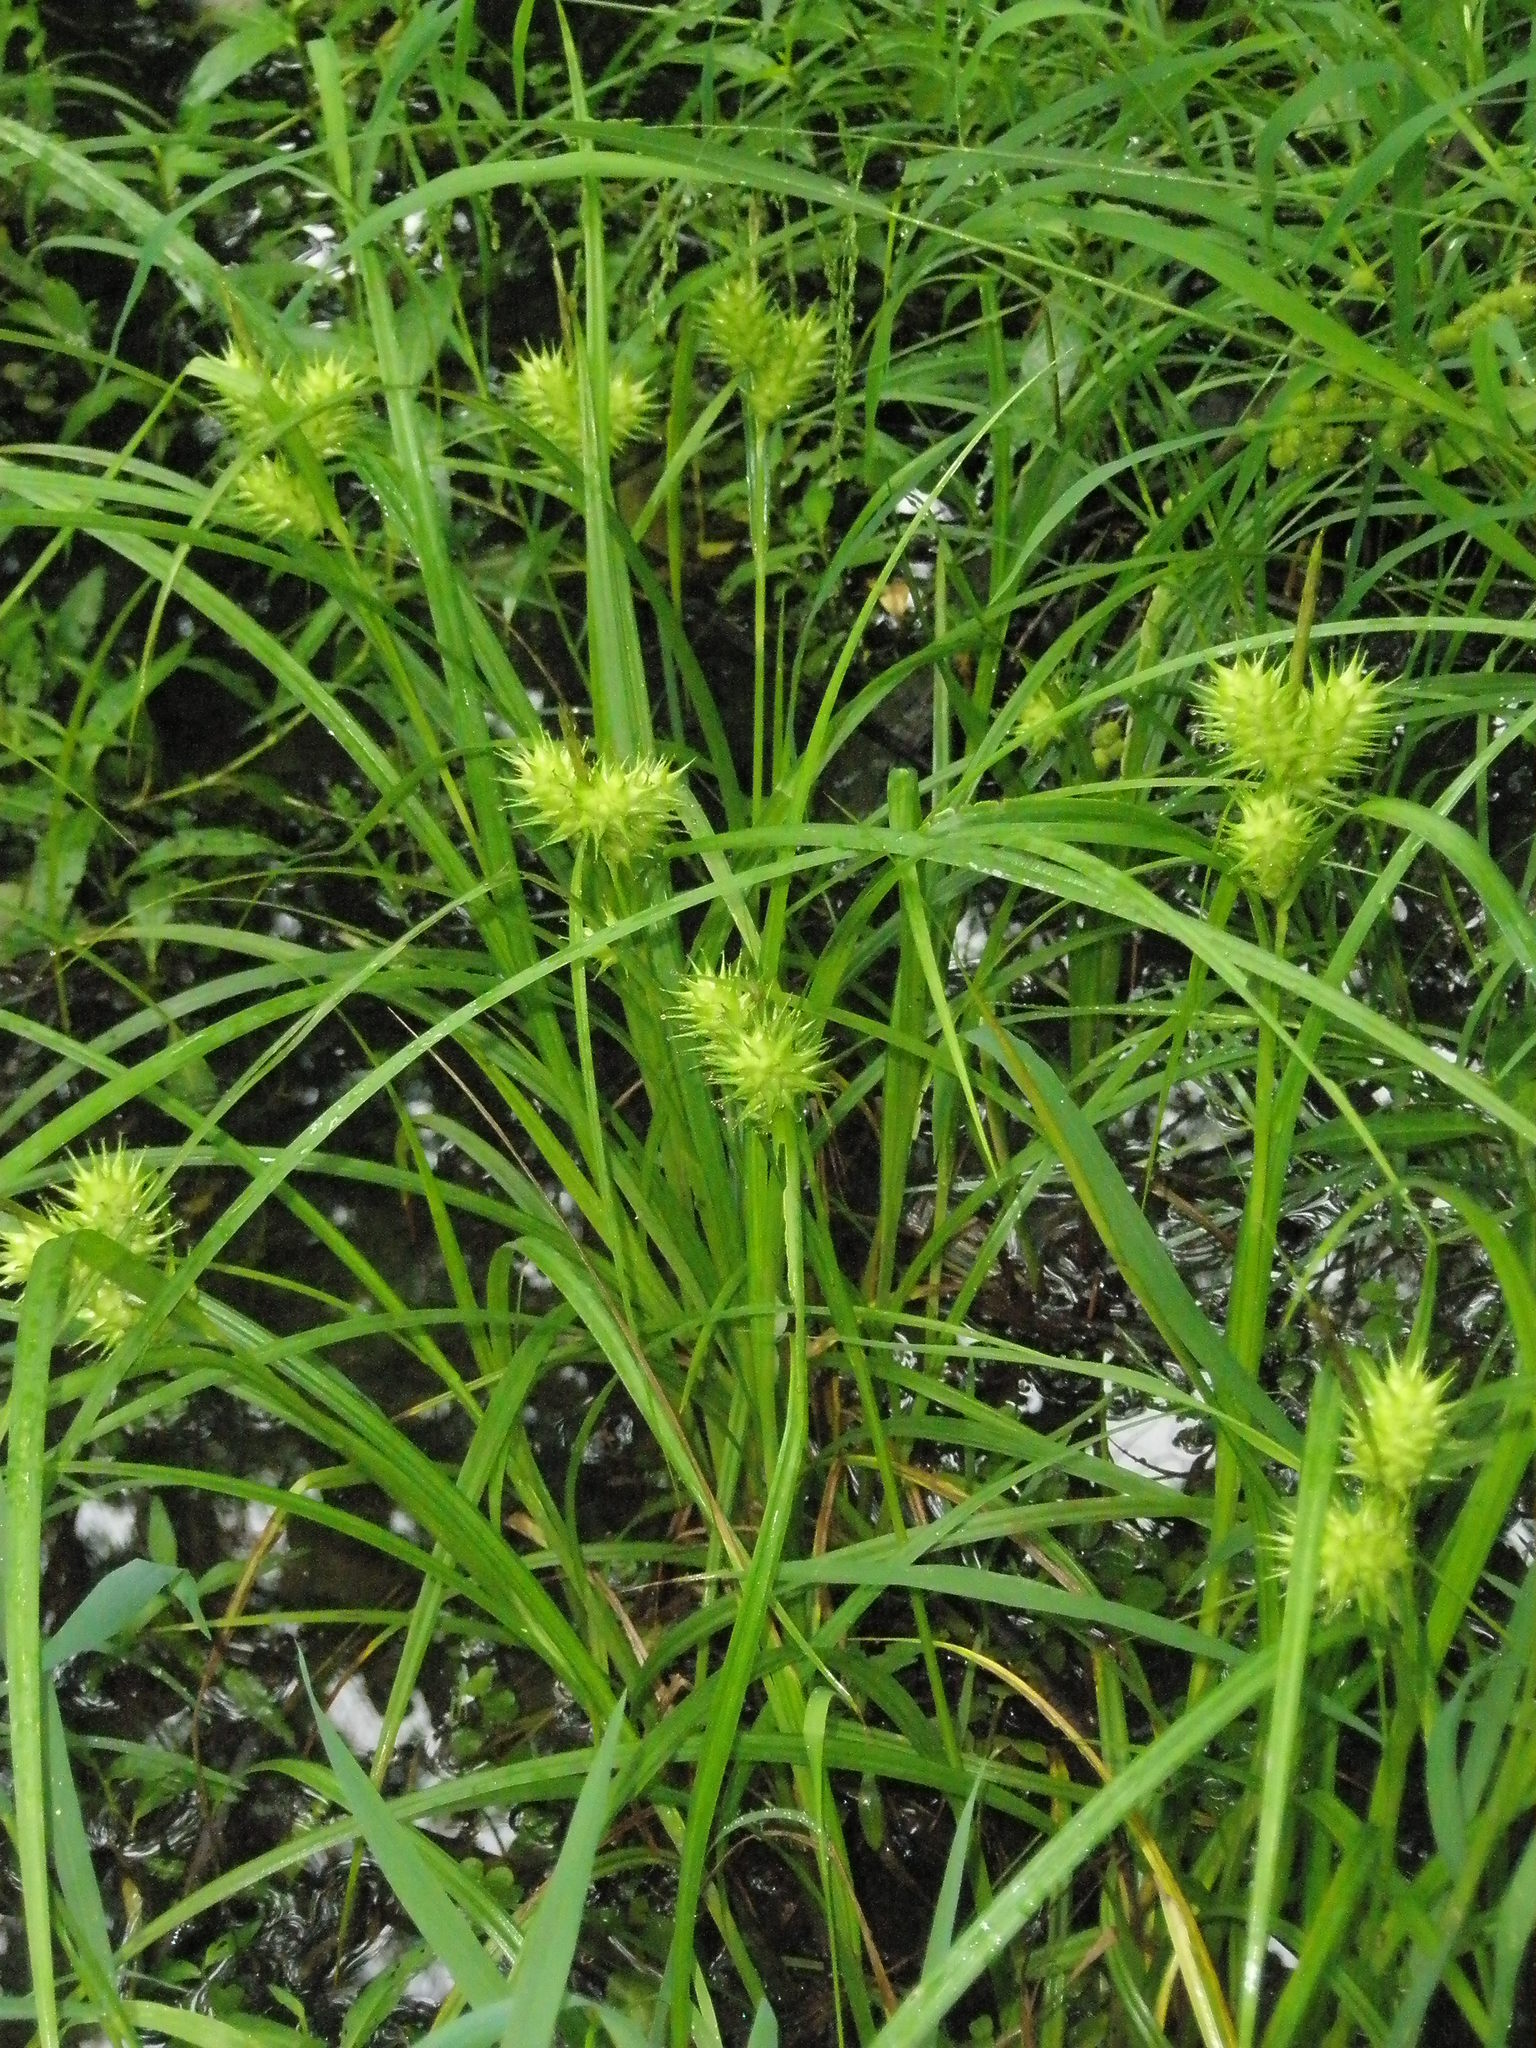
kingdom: Plantae
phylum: Tracheophyta
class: Liliopsida
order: Poales
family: Cyperaceae
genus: Carex
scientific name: Carex lupulina
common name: Hop sedge
